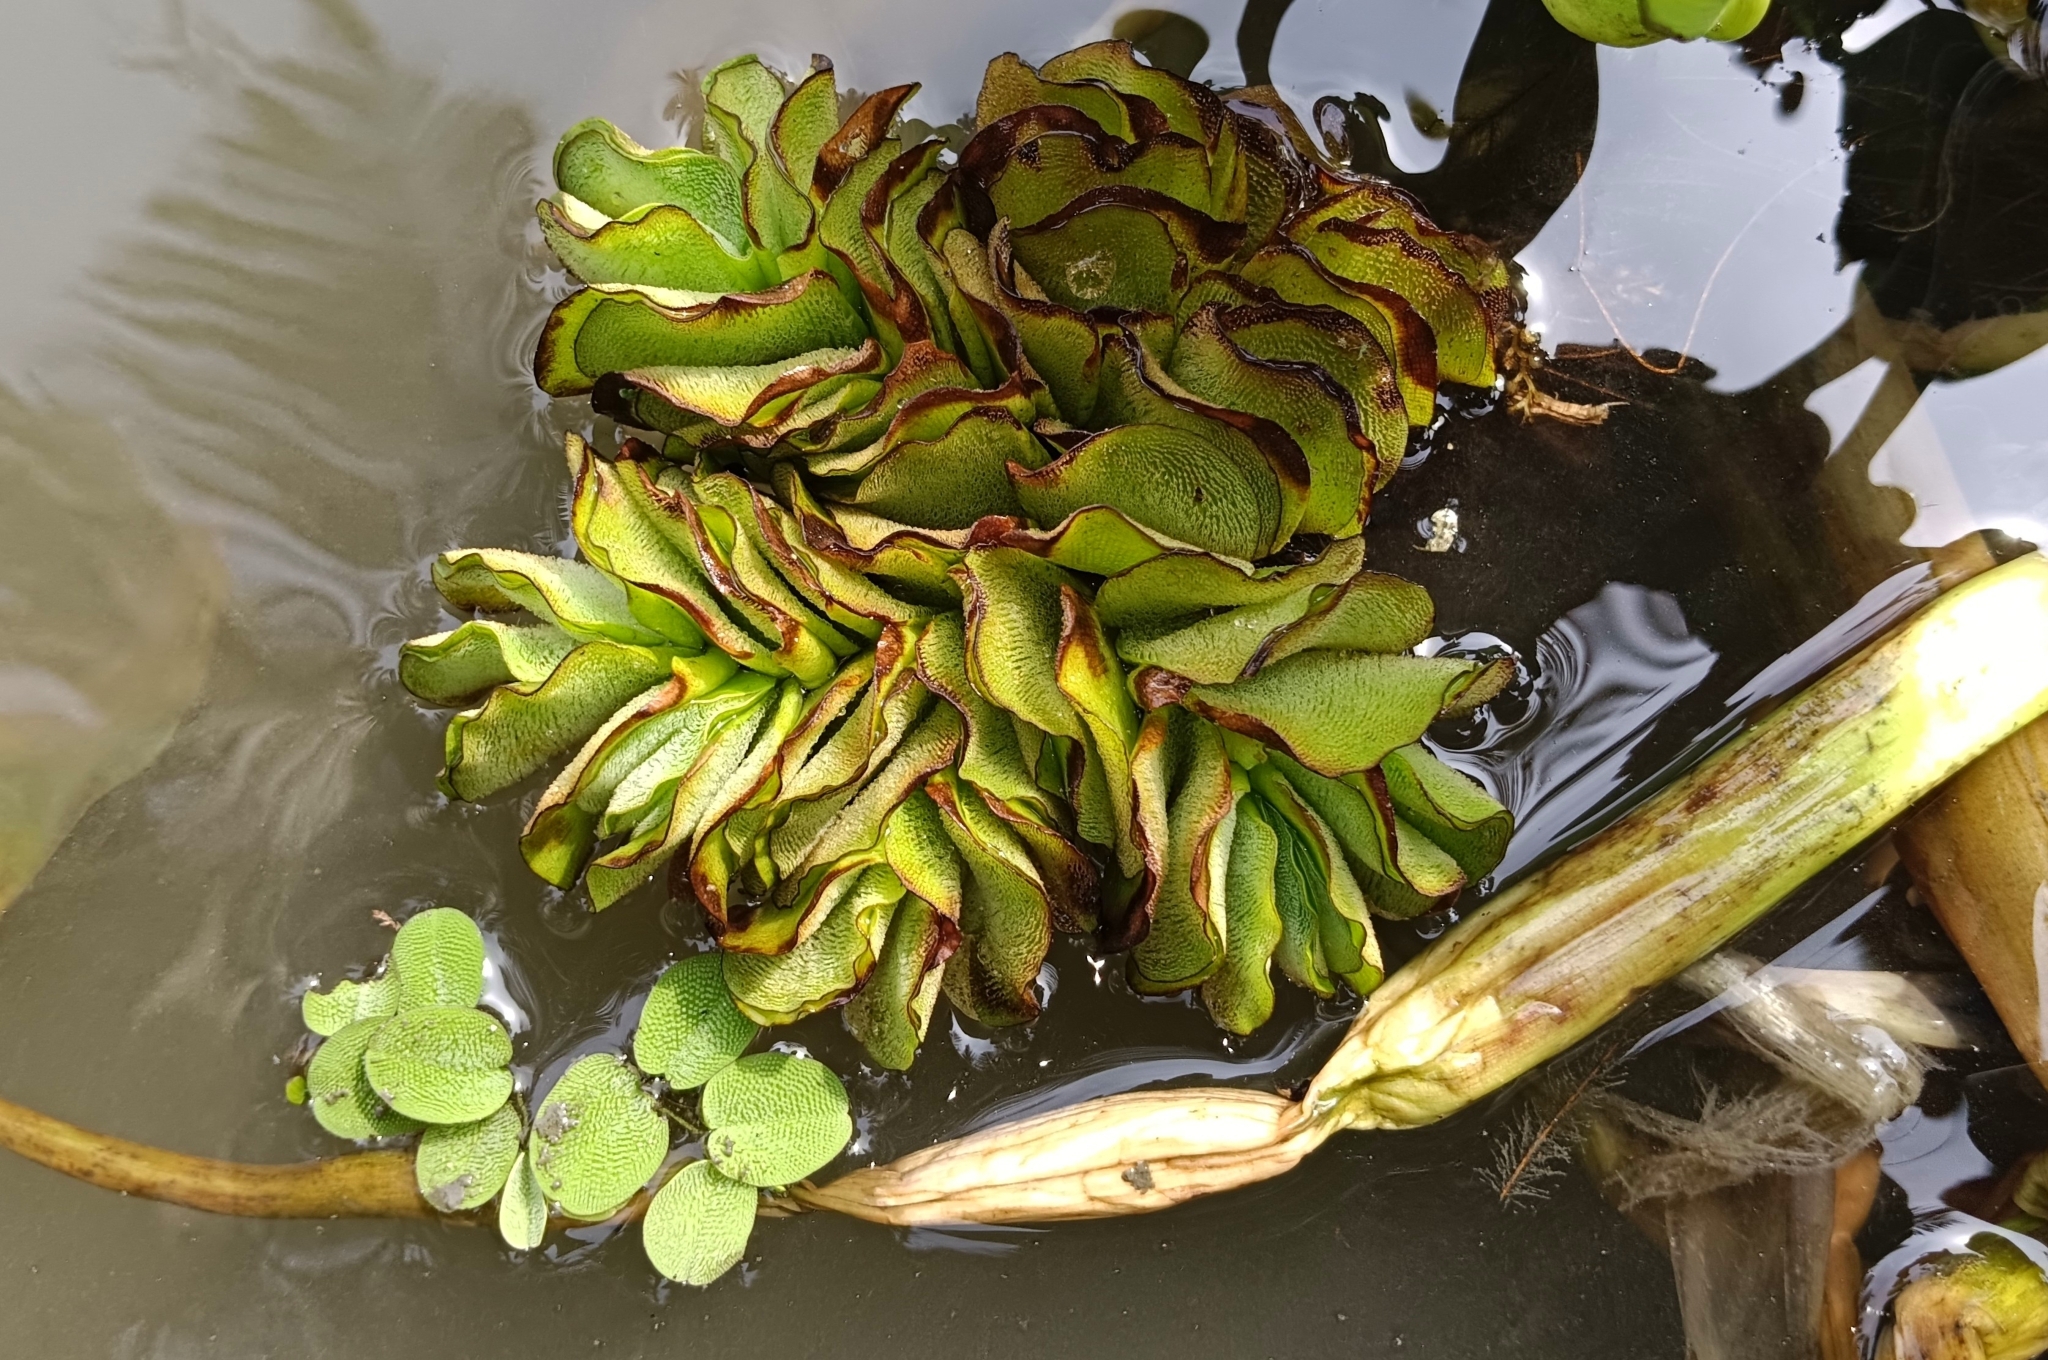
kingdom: Plantae
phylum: Tracheophyta
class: Polypodiopsida
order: Salviniales
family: Salviniaceae
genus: Salvinia
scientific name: Salvinia molesta
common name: Kariba weed
